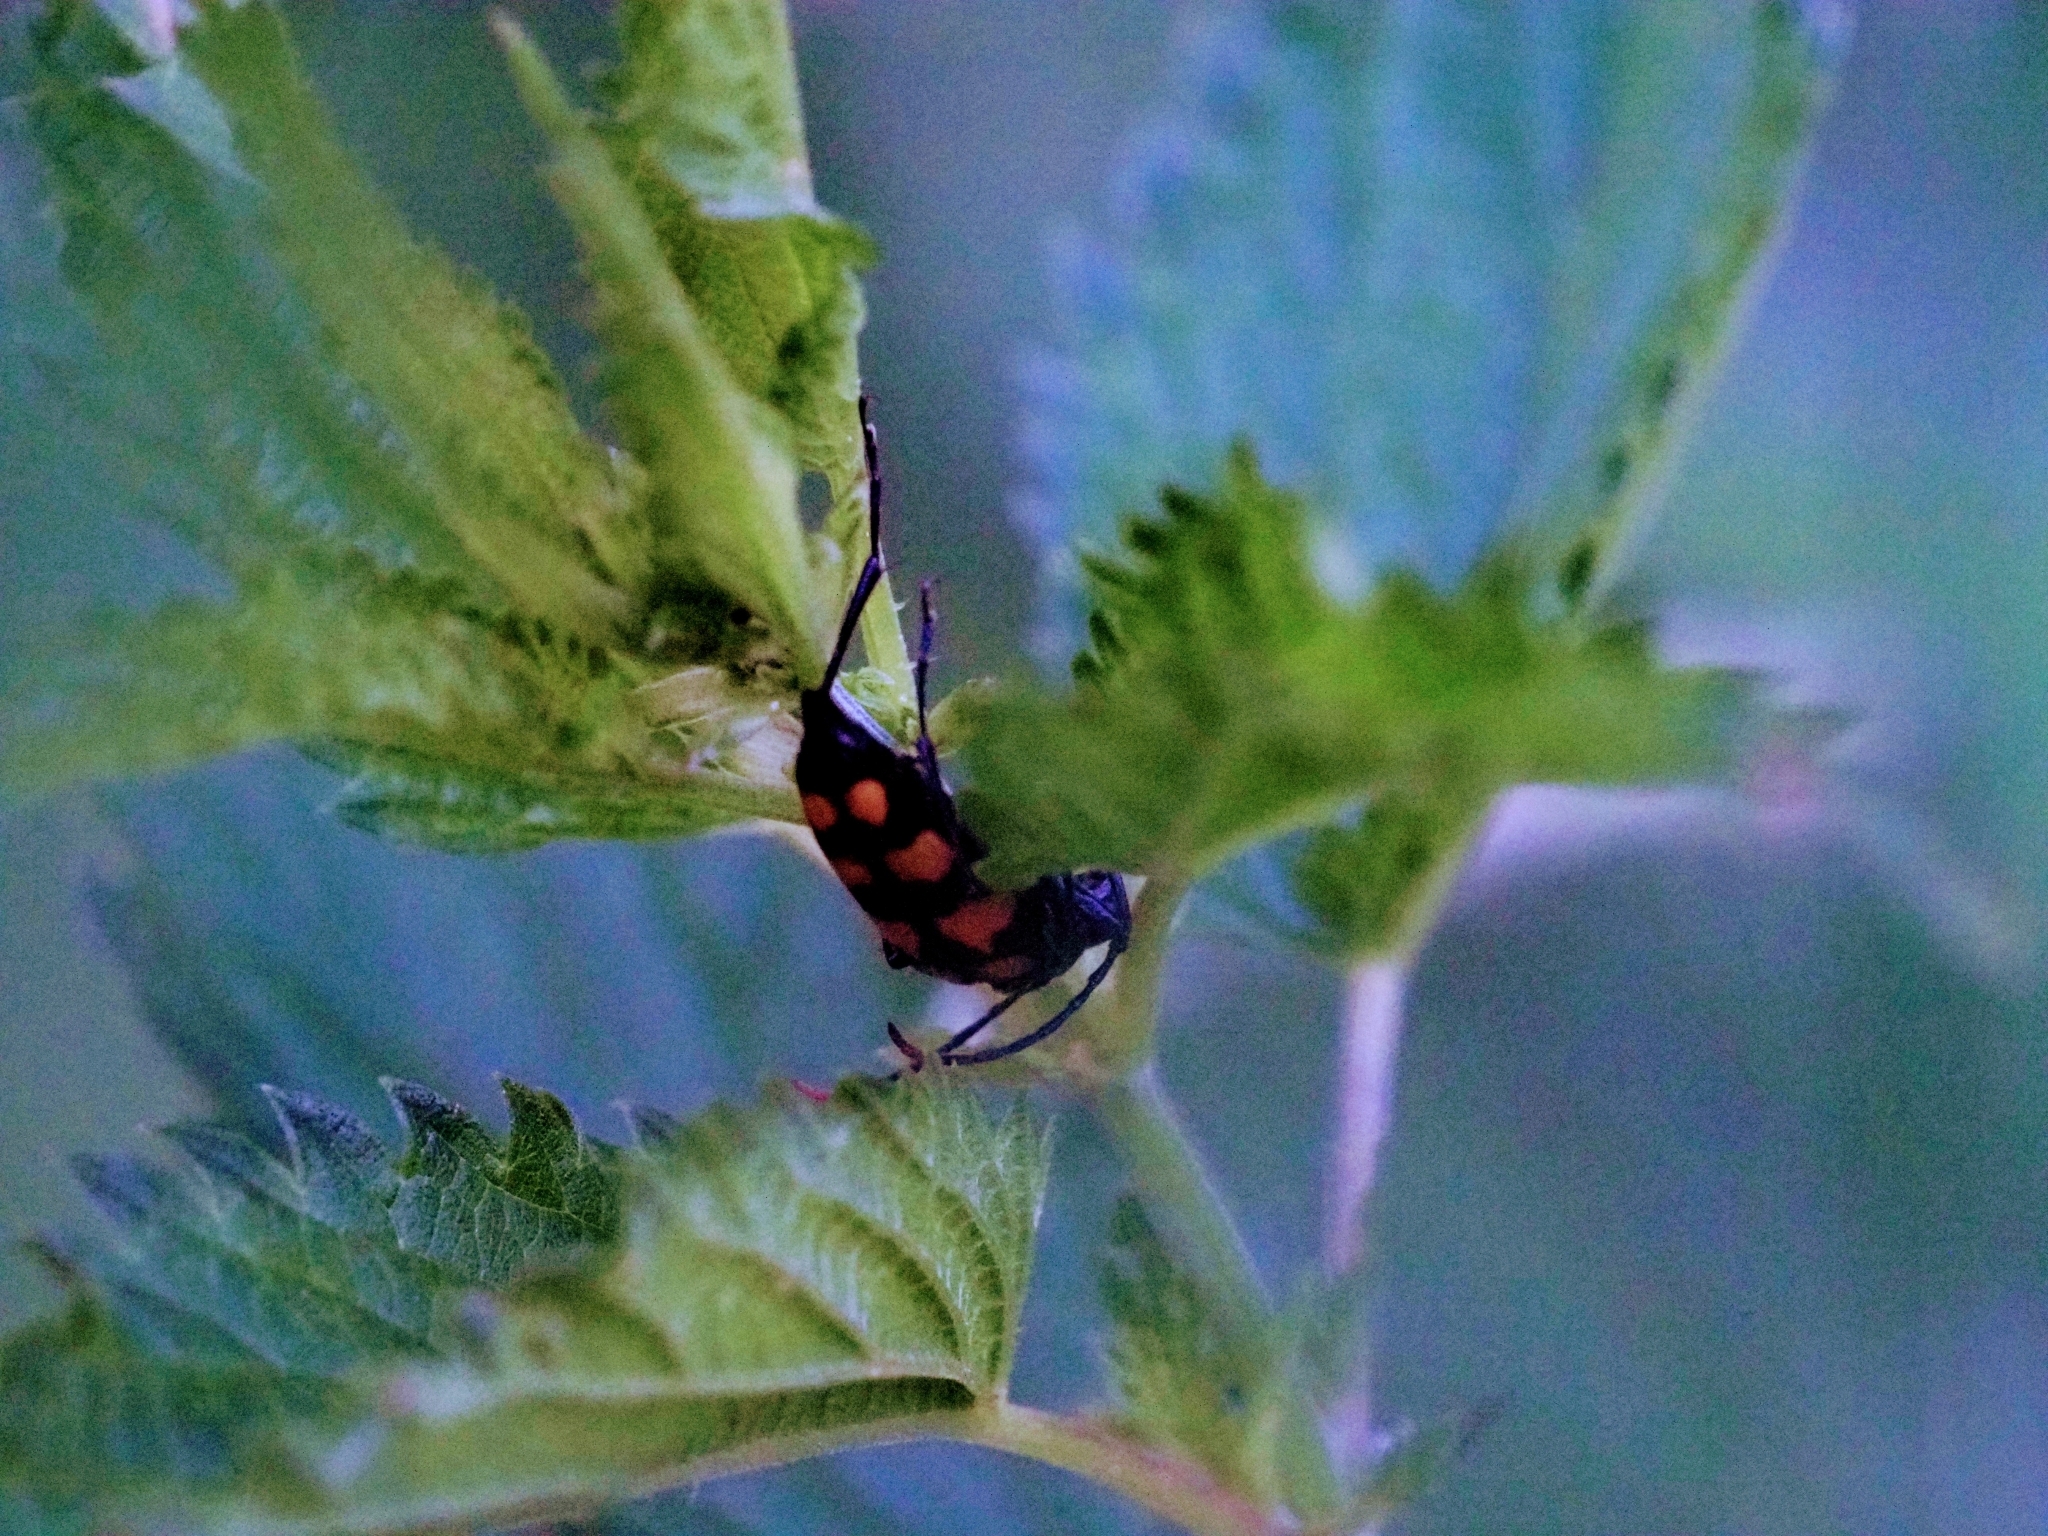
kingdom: Animalia
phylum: Arthropoda
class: Insecta
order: Coleoptera
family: Cerambycidae
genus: Leptura
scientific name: Leptura quadrifasciata
